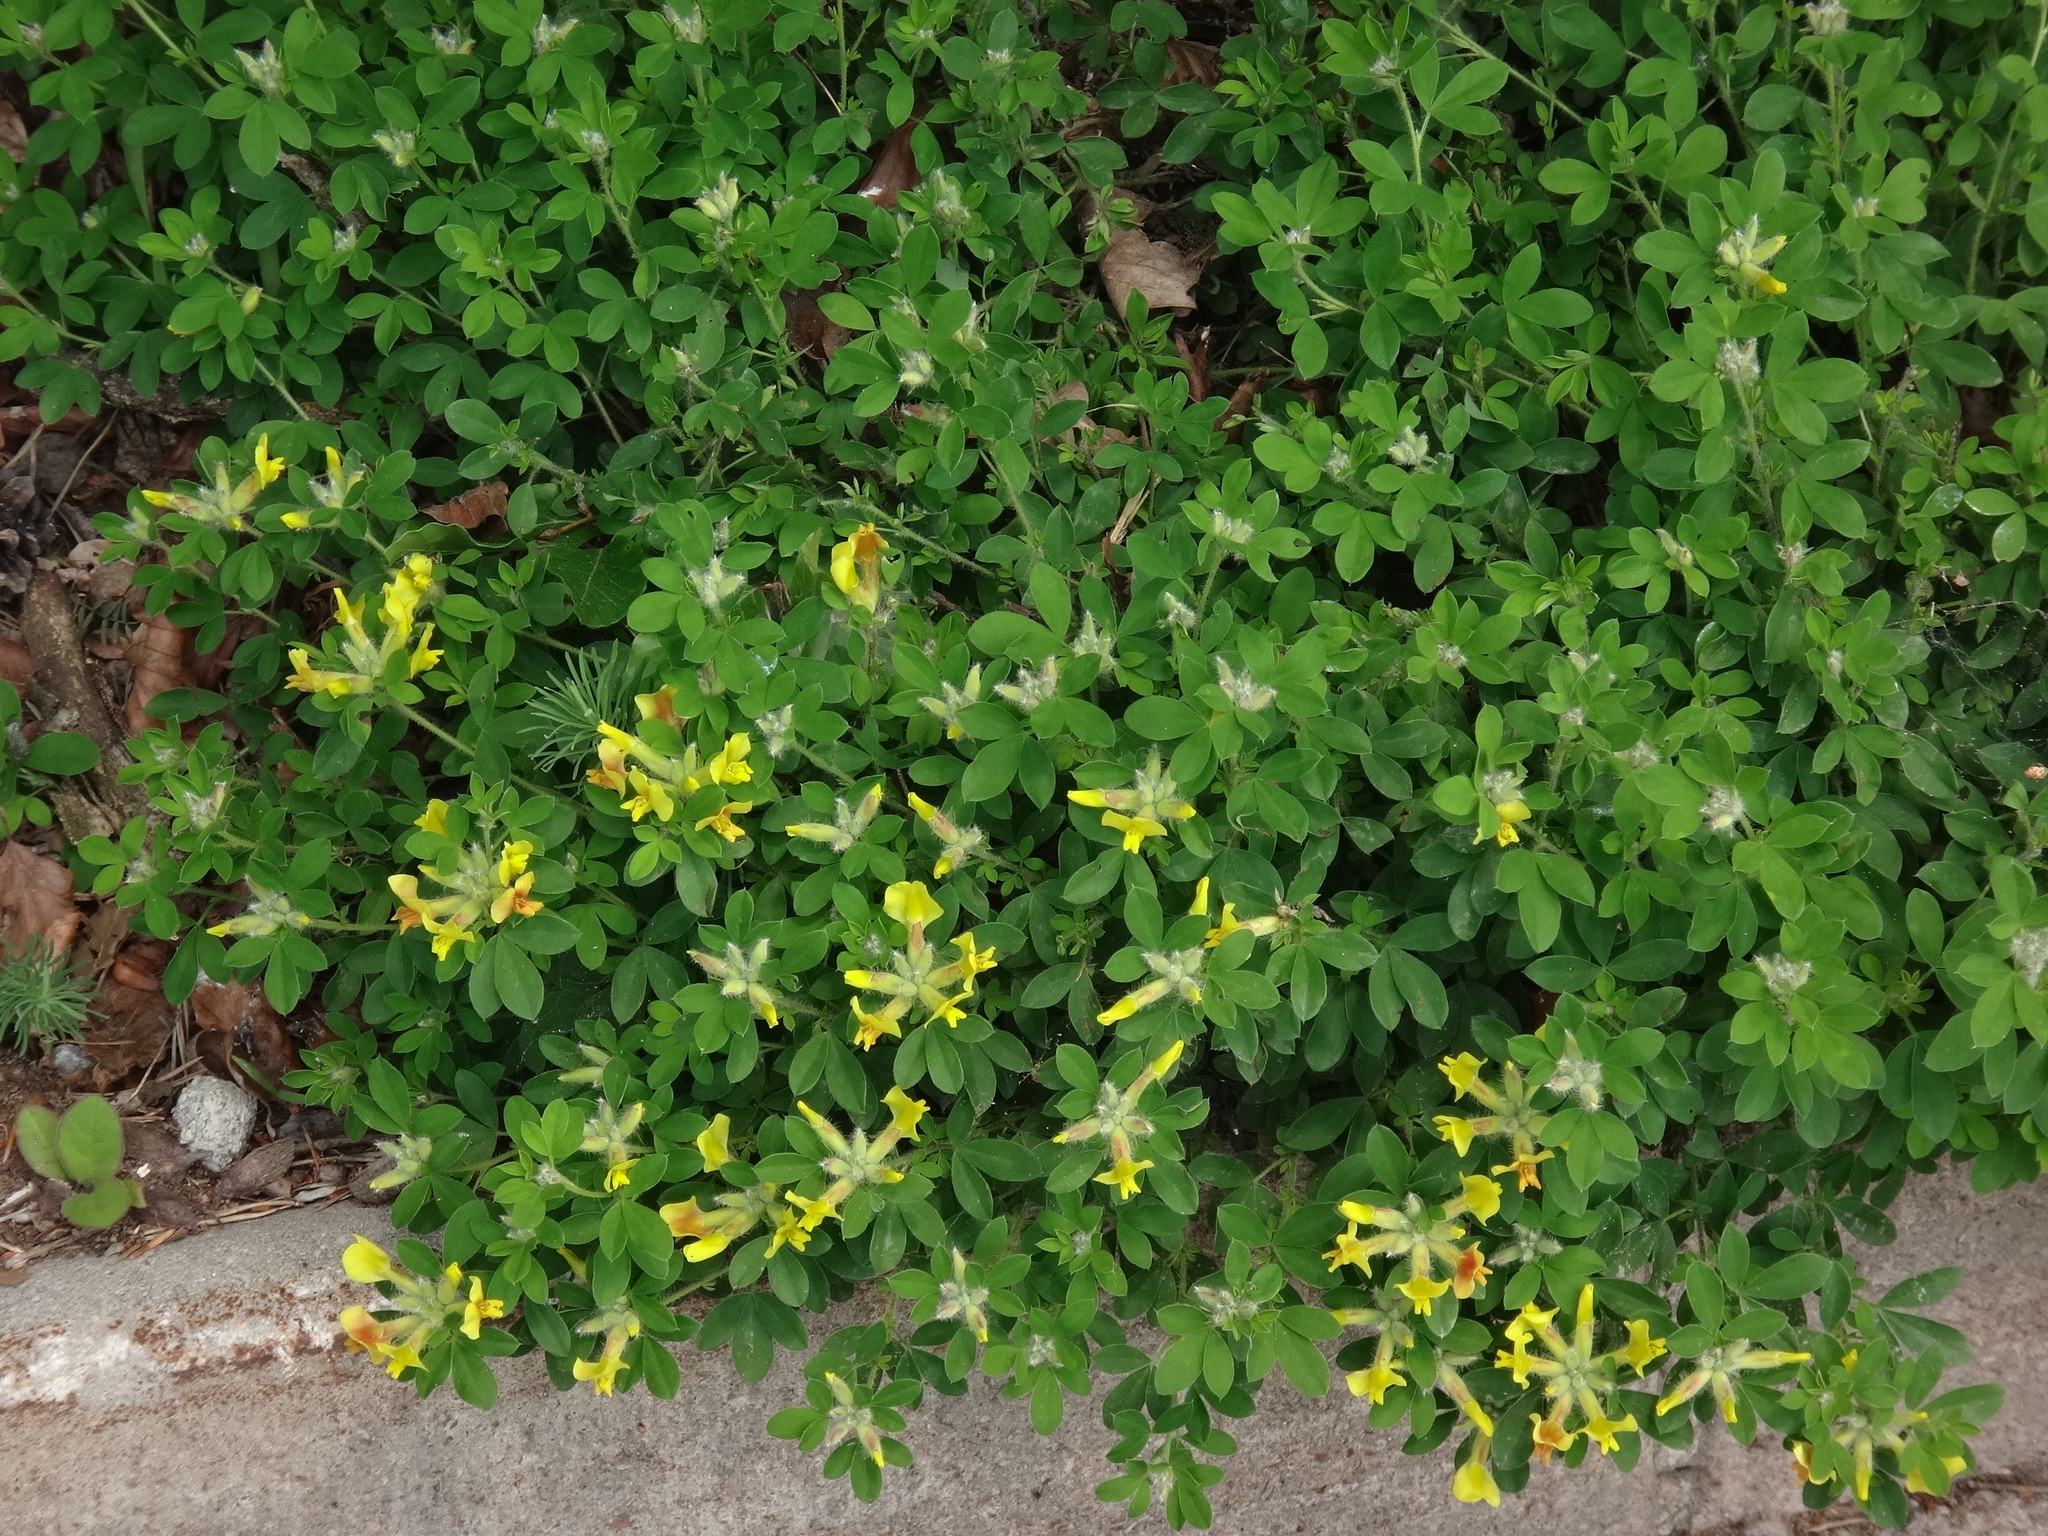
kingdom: Plantae
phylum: Tracheophyta
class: Magnoliopsida
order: Fabales
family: Fabaceae
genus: Chamaecytisus
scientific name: Chamaecytisus supinus
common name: Clustered broom
